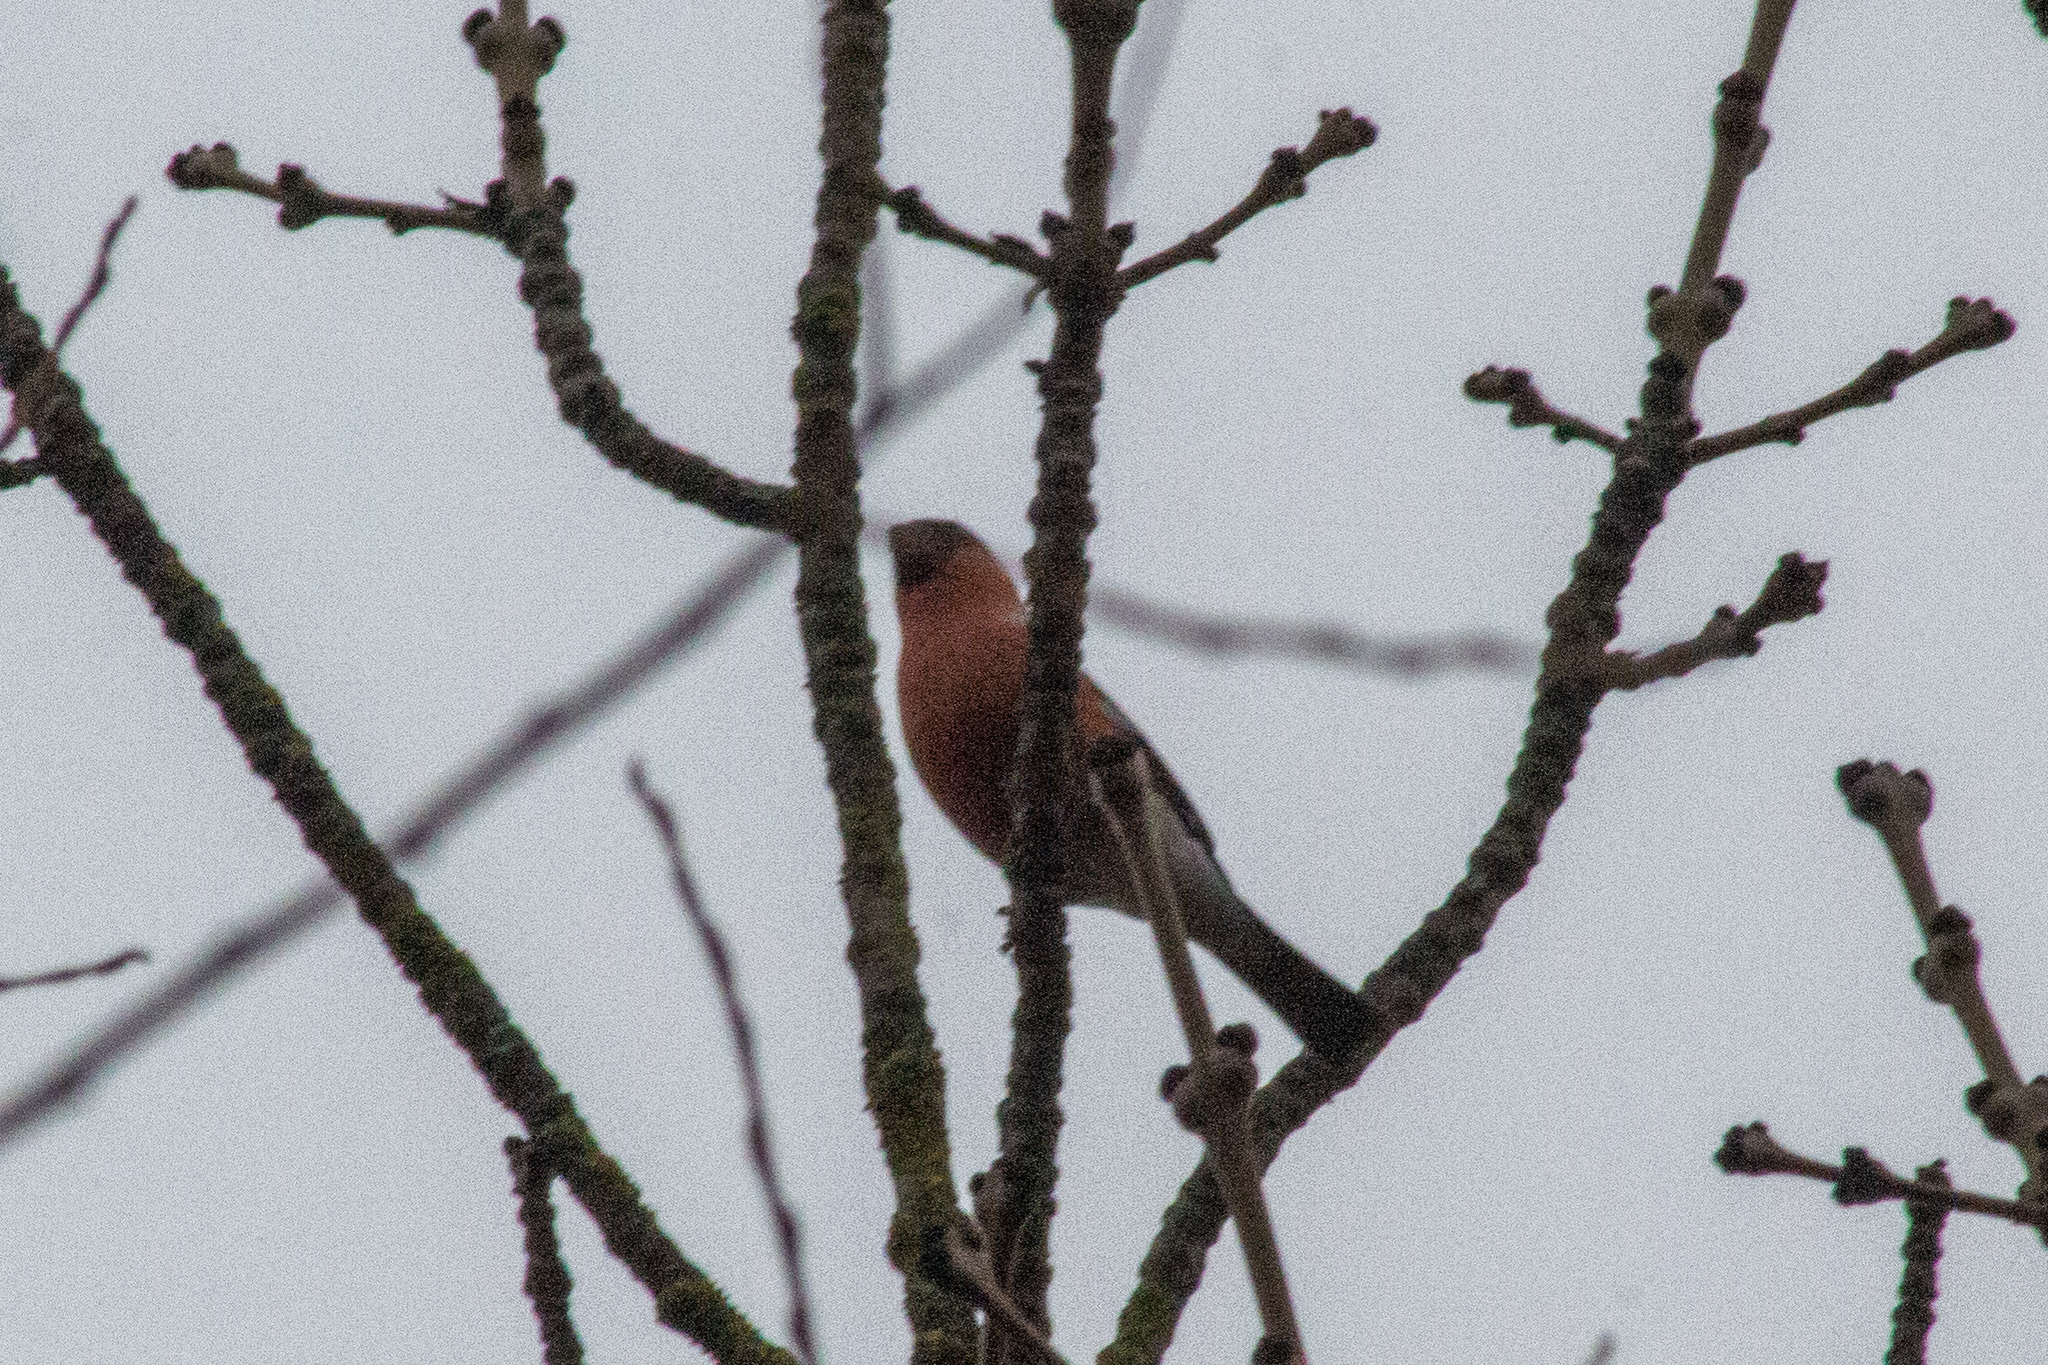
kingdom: Animalia
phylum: Chordata
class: Aves
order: Passeriformes
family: Fringillidae
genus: Pyrrhula
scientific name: Pyrrhula pyrrhula
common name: Eurasian bullfinch
